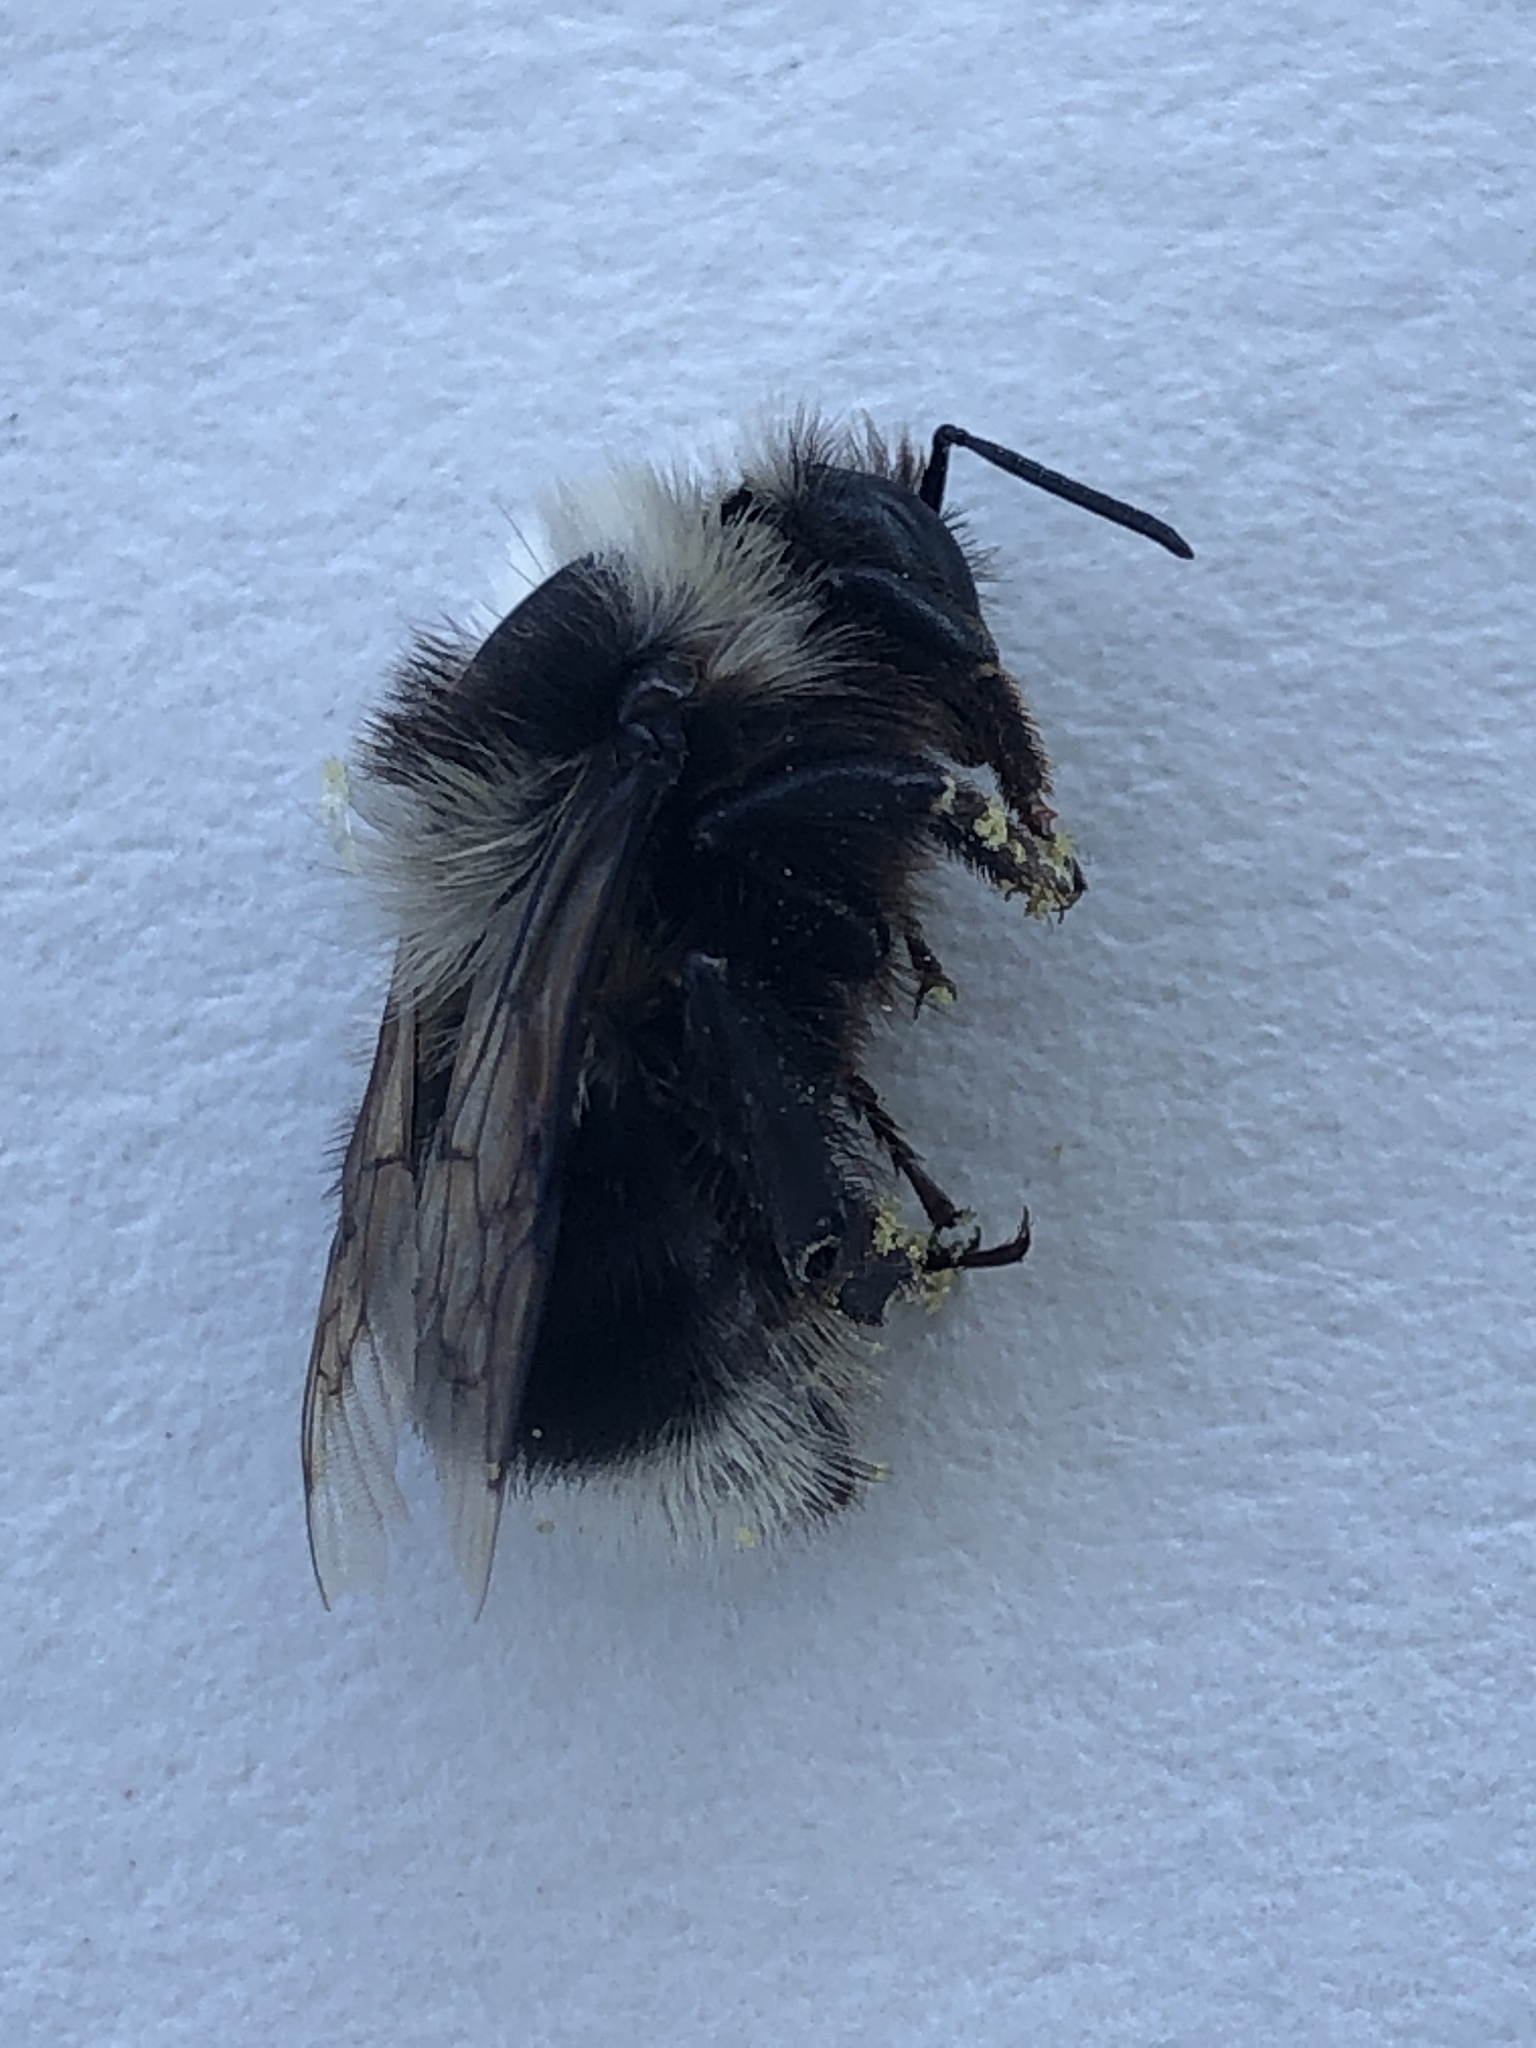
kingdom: Animalia
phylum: Arthropoda
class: Insecta
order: Hymenoptera
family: Apidae
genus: Bombus
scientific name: Bombus melanopygus
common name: Black tail bumble bee
